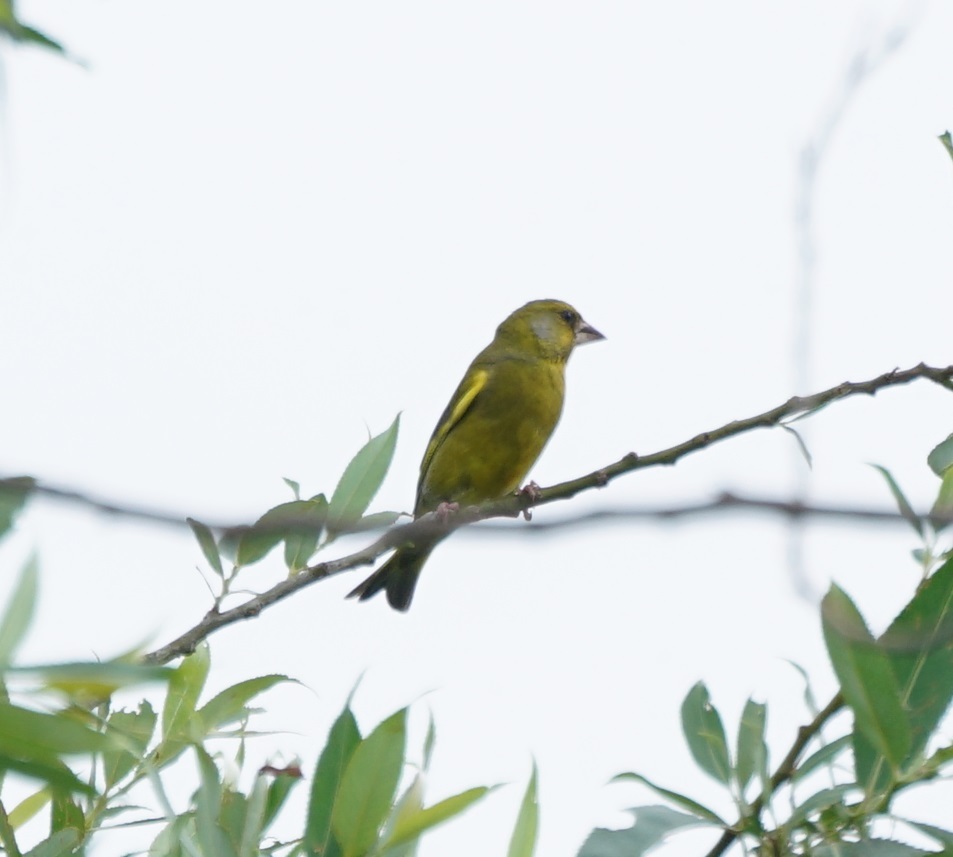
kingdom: Plantae
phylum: Tracheophyta
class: Liliopsida
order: Poales
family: Poaceae
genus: Chloris
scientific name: Chloris chloris
